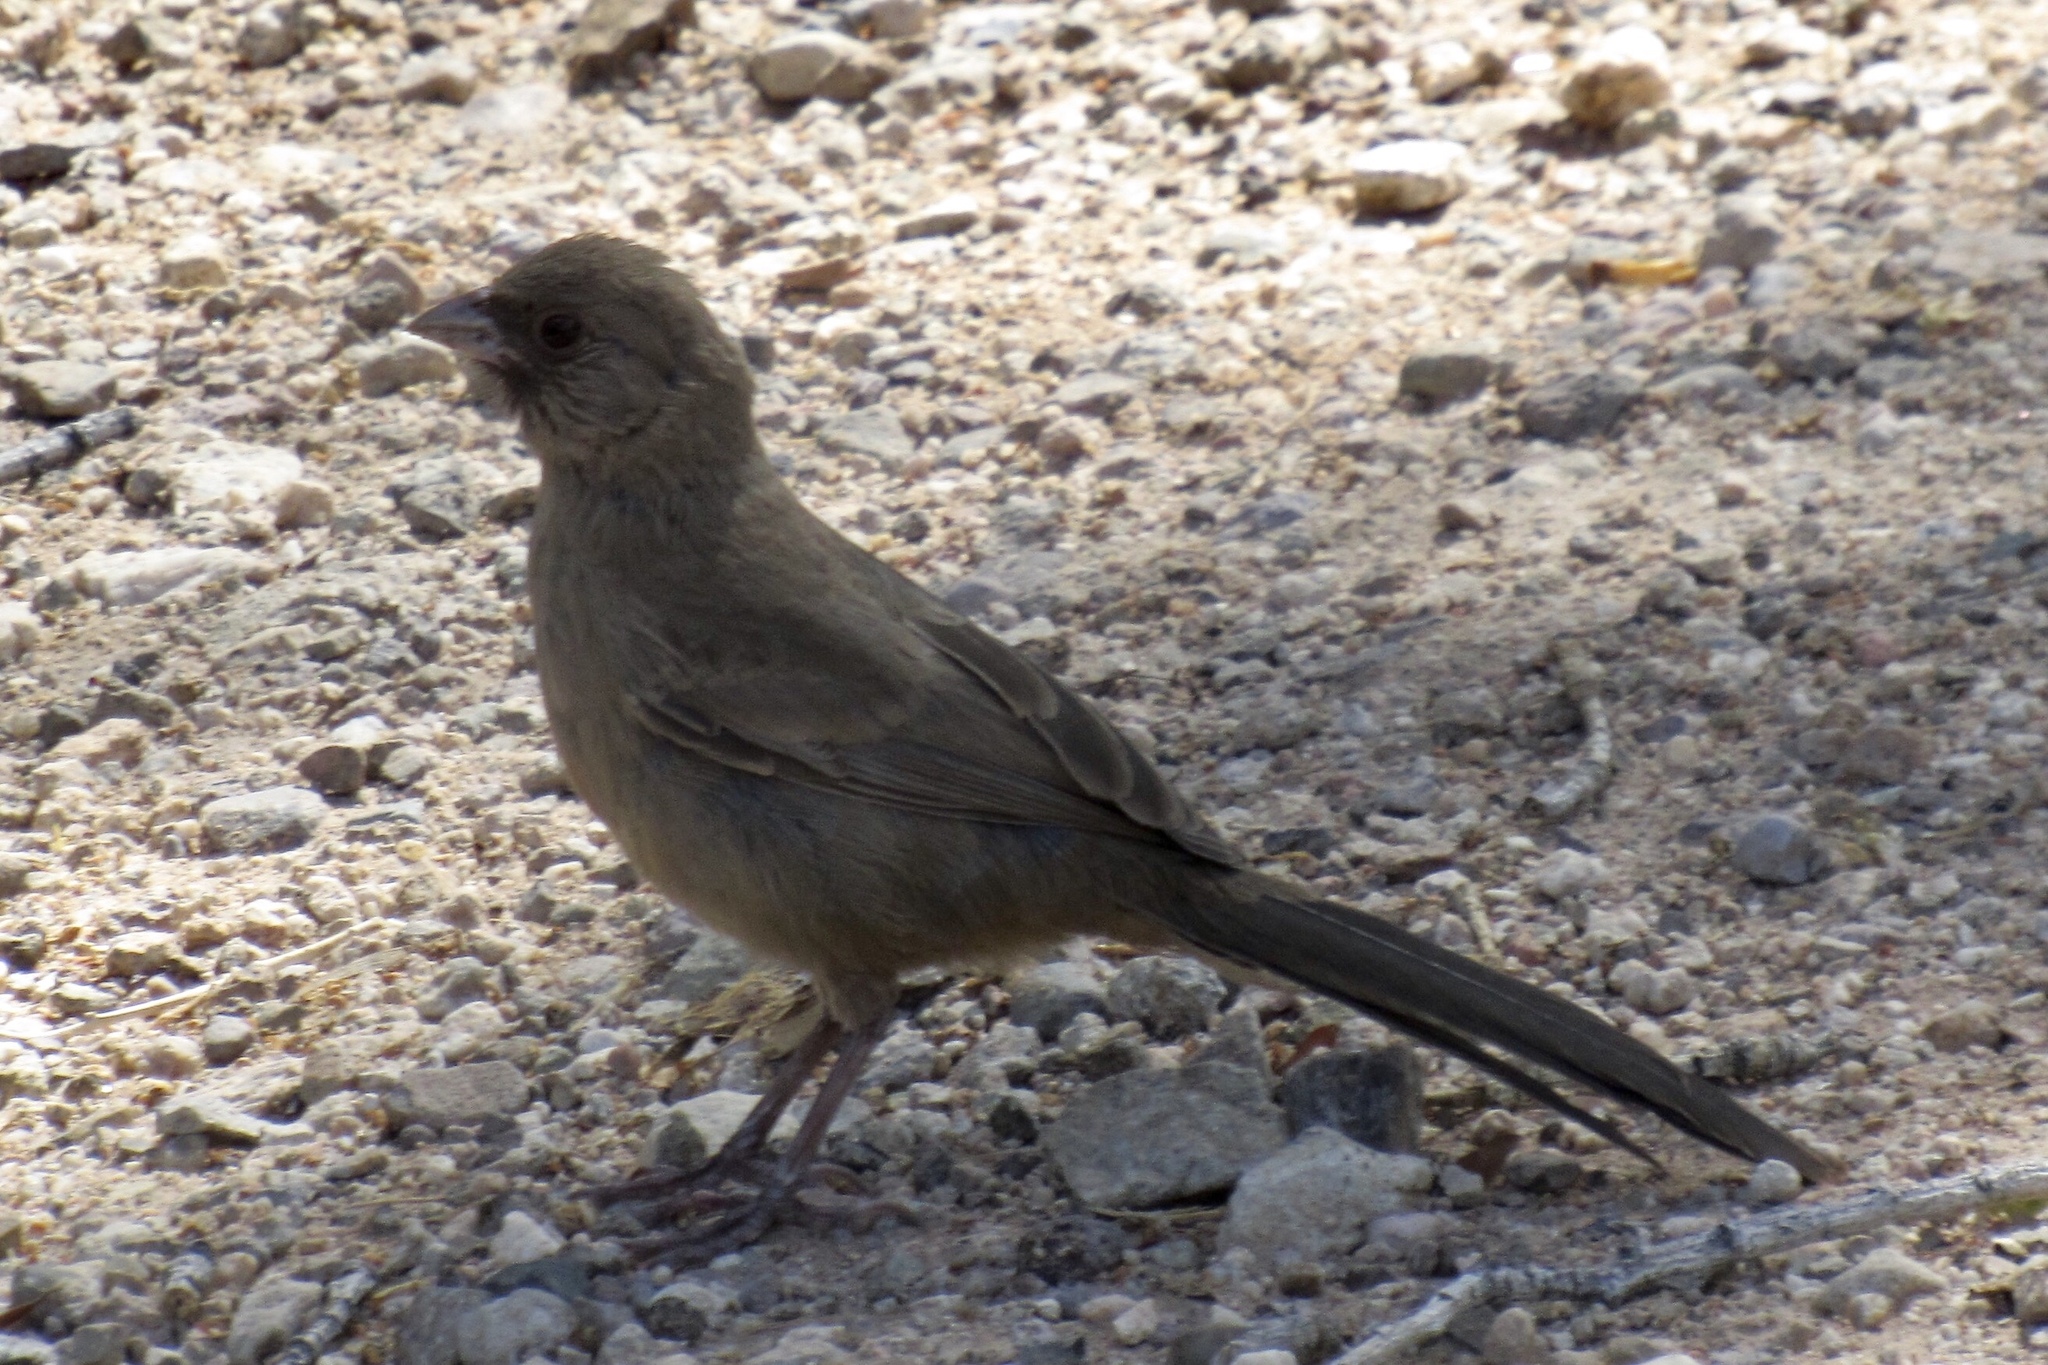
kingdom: Animalia
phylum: Chordata
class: Aves
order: Passeriformes
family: Passerellidae
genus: Melozone
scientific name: Melozone aberti
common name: Abert's towhee
